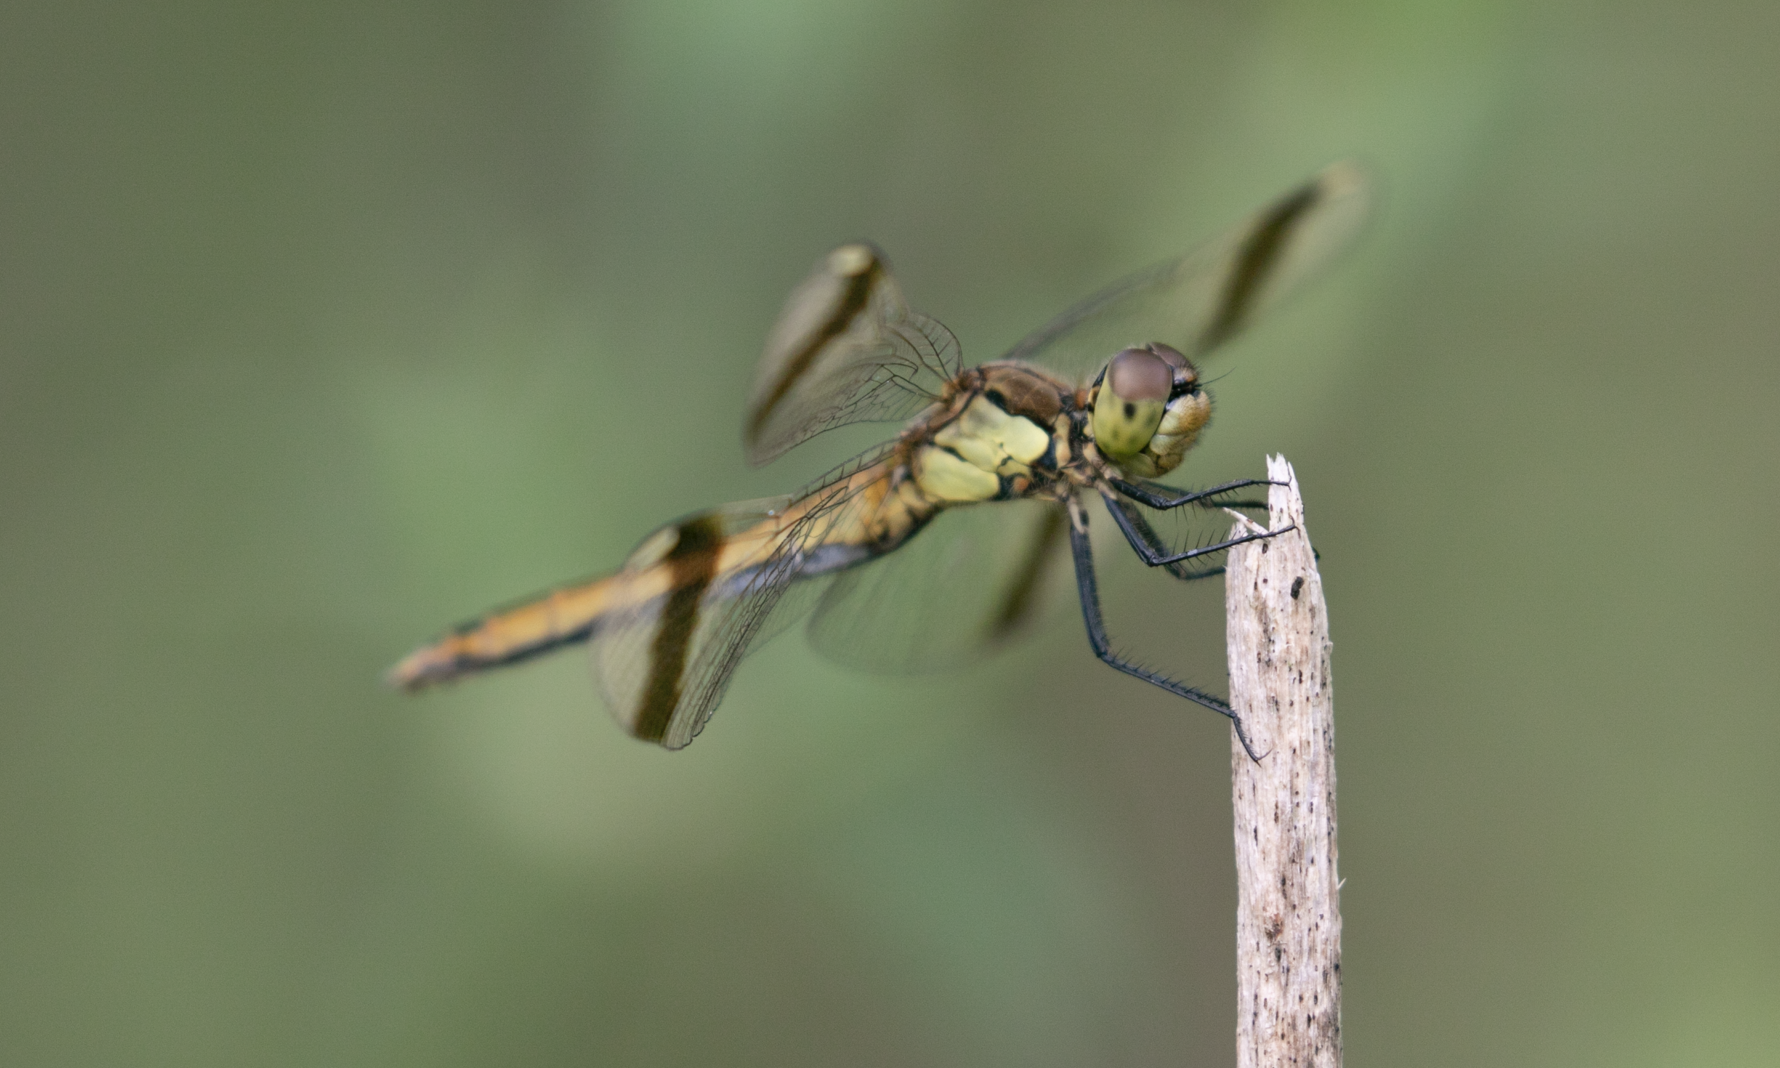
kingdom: Animalia
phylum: Arthropoda
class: Insecta
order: Odonata
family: Libellulidae
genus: Sympetrum
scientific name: Sympetrum pedemontanum
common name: Banded darter
